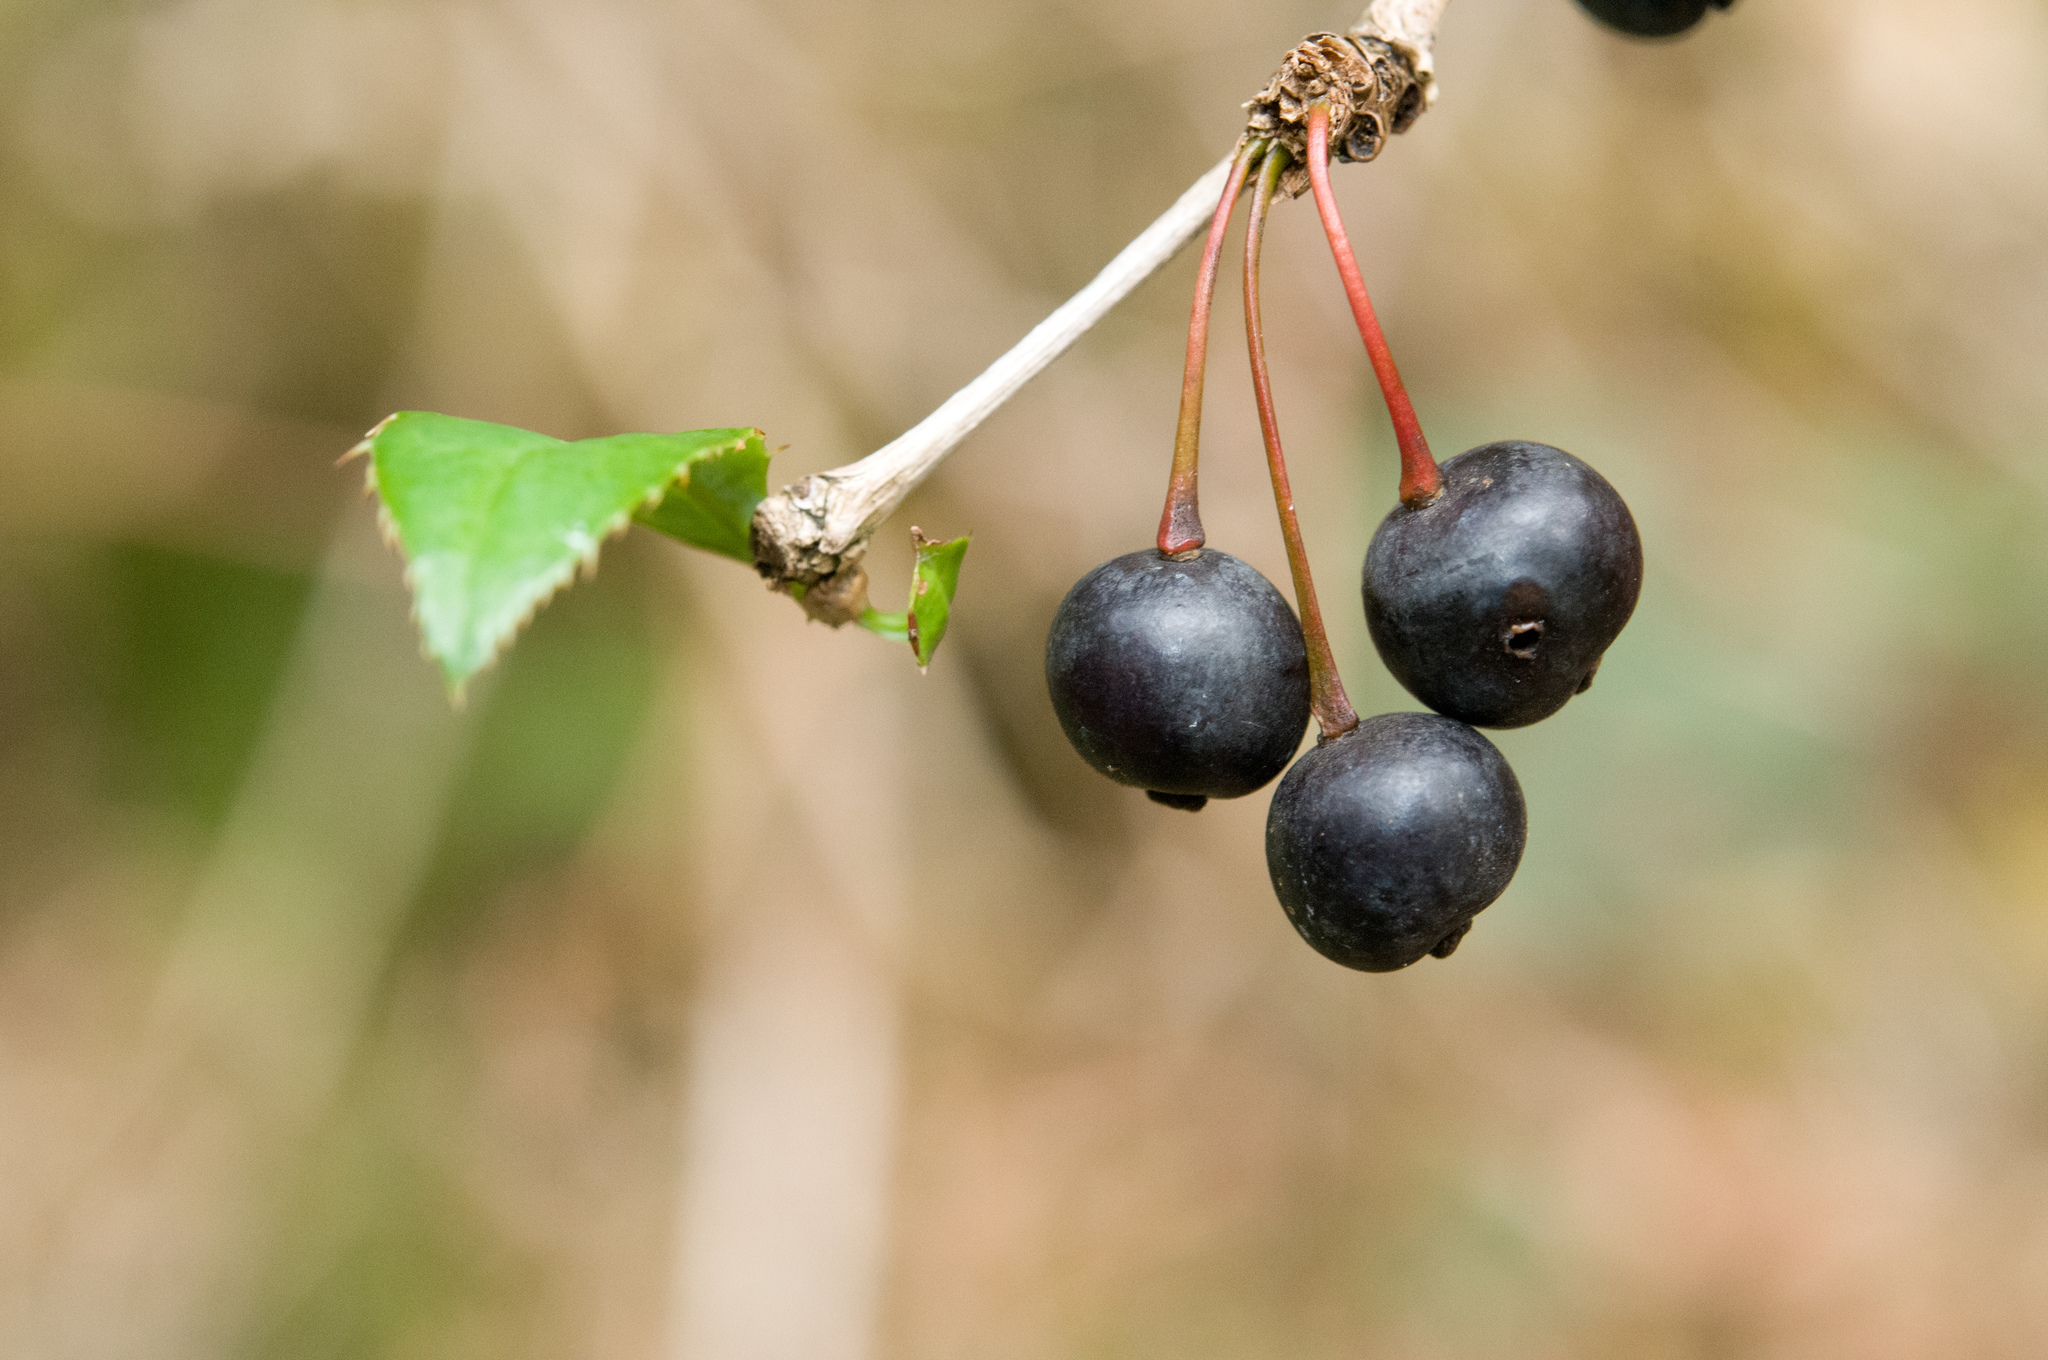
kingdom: Plantae
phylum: Tracheophyta
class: Magnoliopsida
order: Ranunculales
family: Berberidaceae
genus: Berberis
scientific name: Berberis pengii
